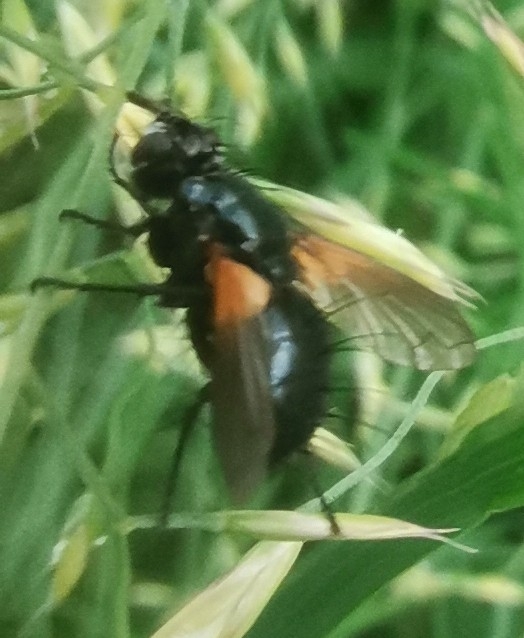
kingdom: Animalia
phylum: Arthropoda
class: Insecta
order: Diptera
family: Tachinidae
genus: Zophomyia
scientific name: Zophomyia temula
